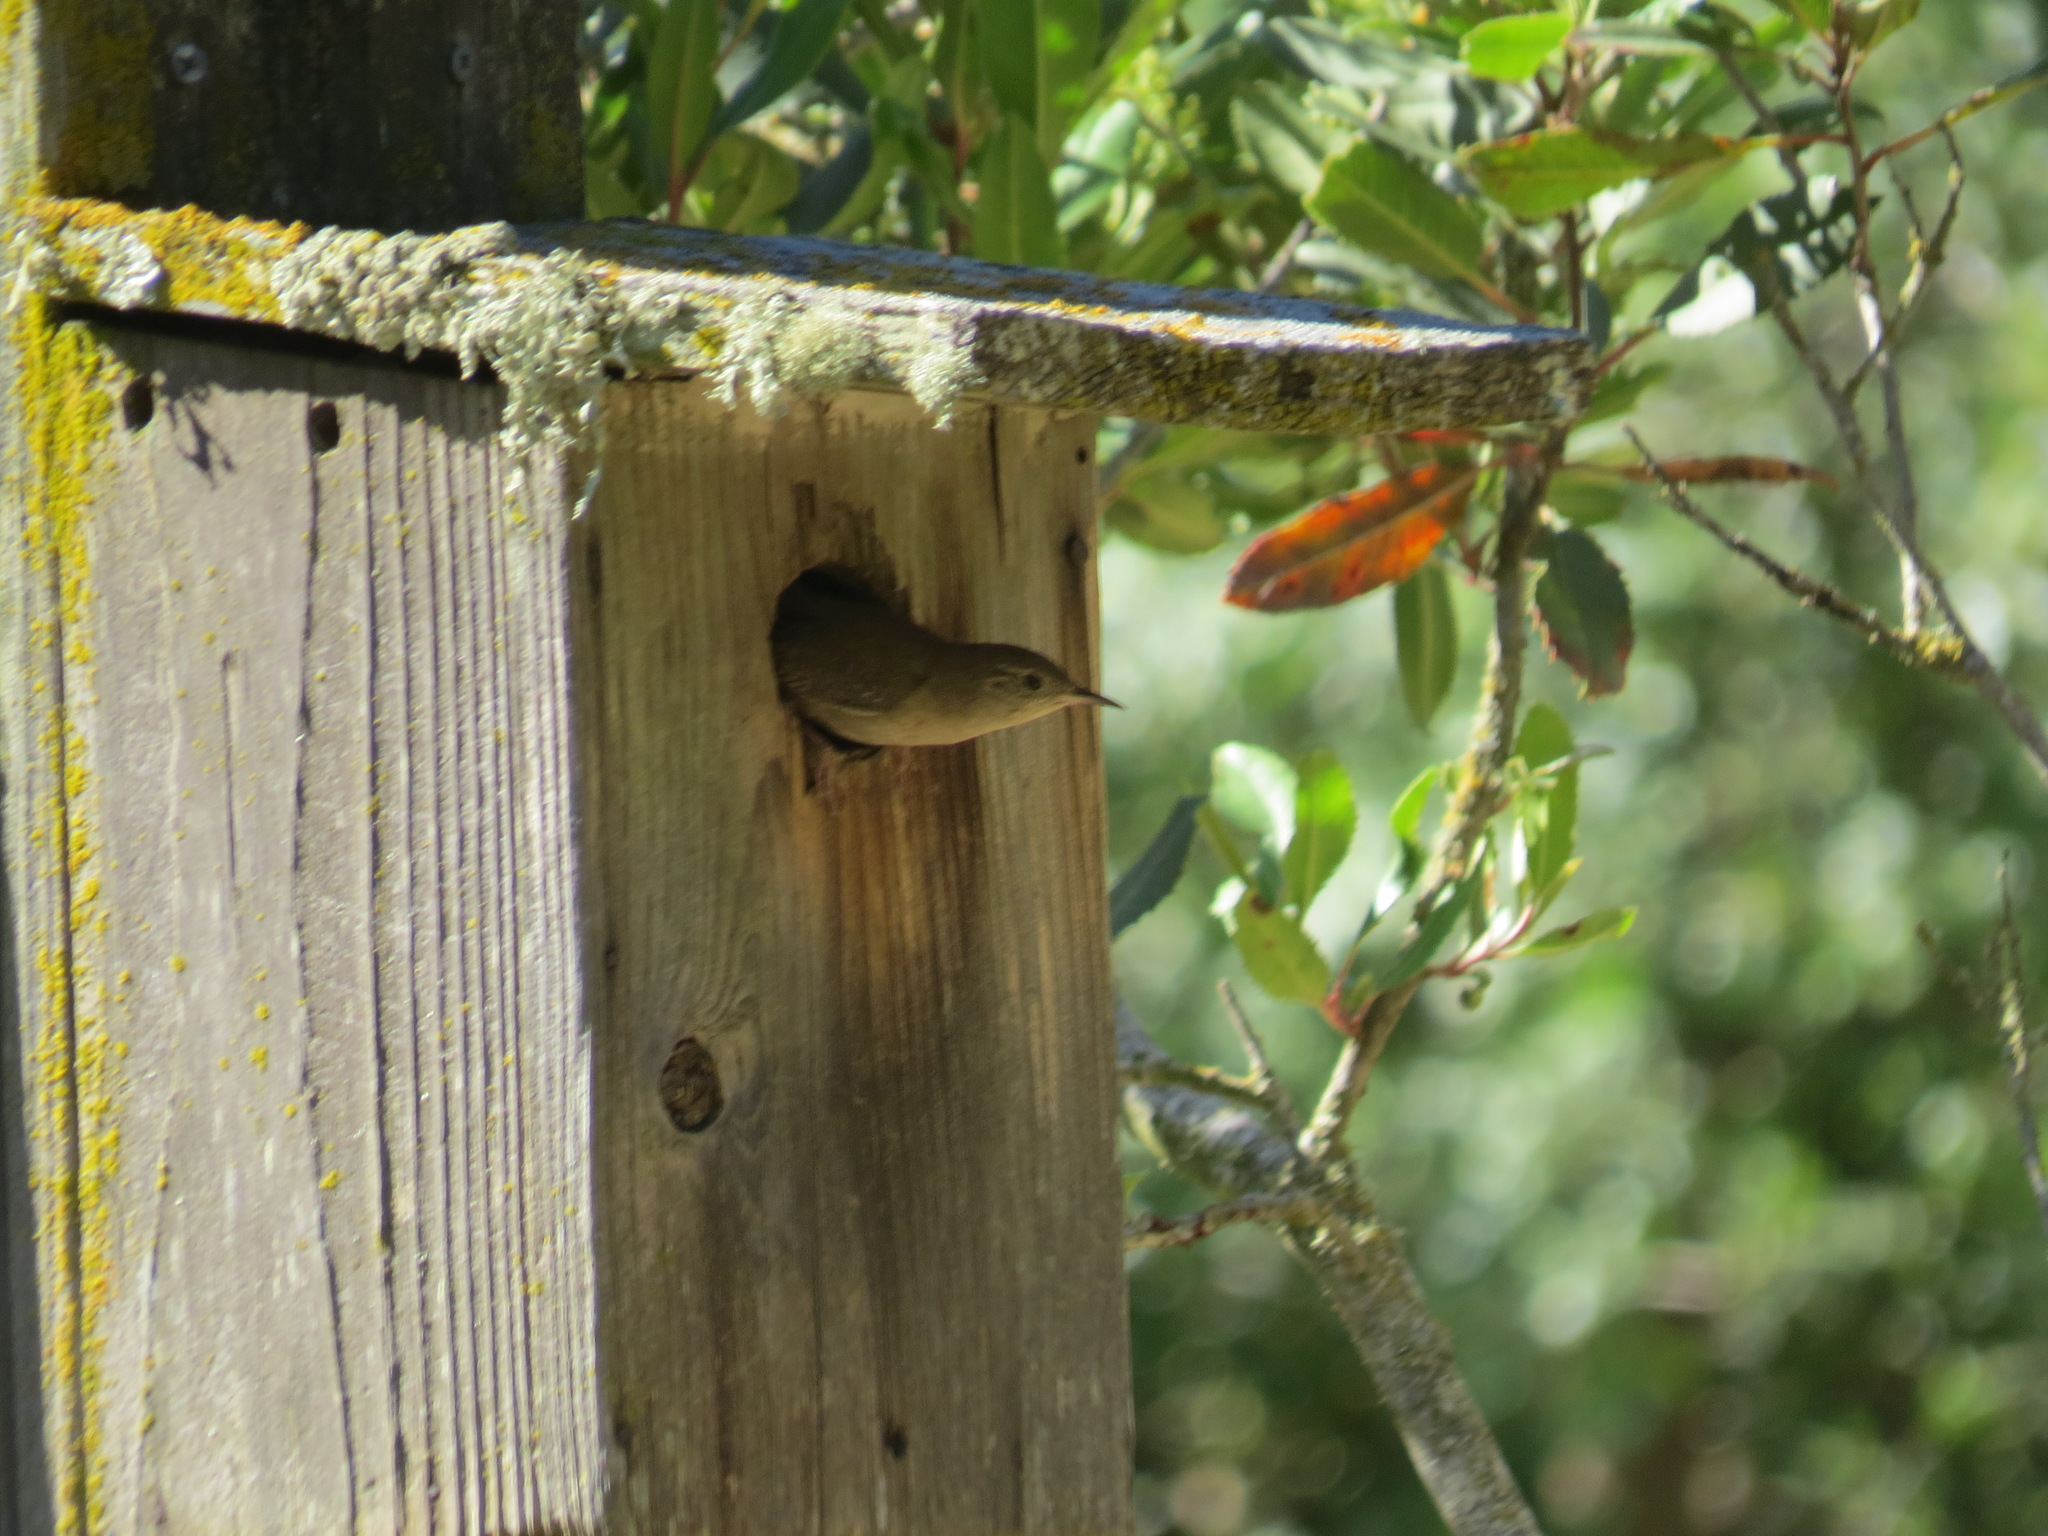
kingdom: Animalia
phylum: Chordata
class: Aves
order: Passeriformes
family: Troglodytidae
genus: Troglodytes
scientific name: Troglodytes aedon
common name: House wren
